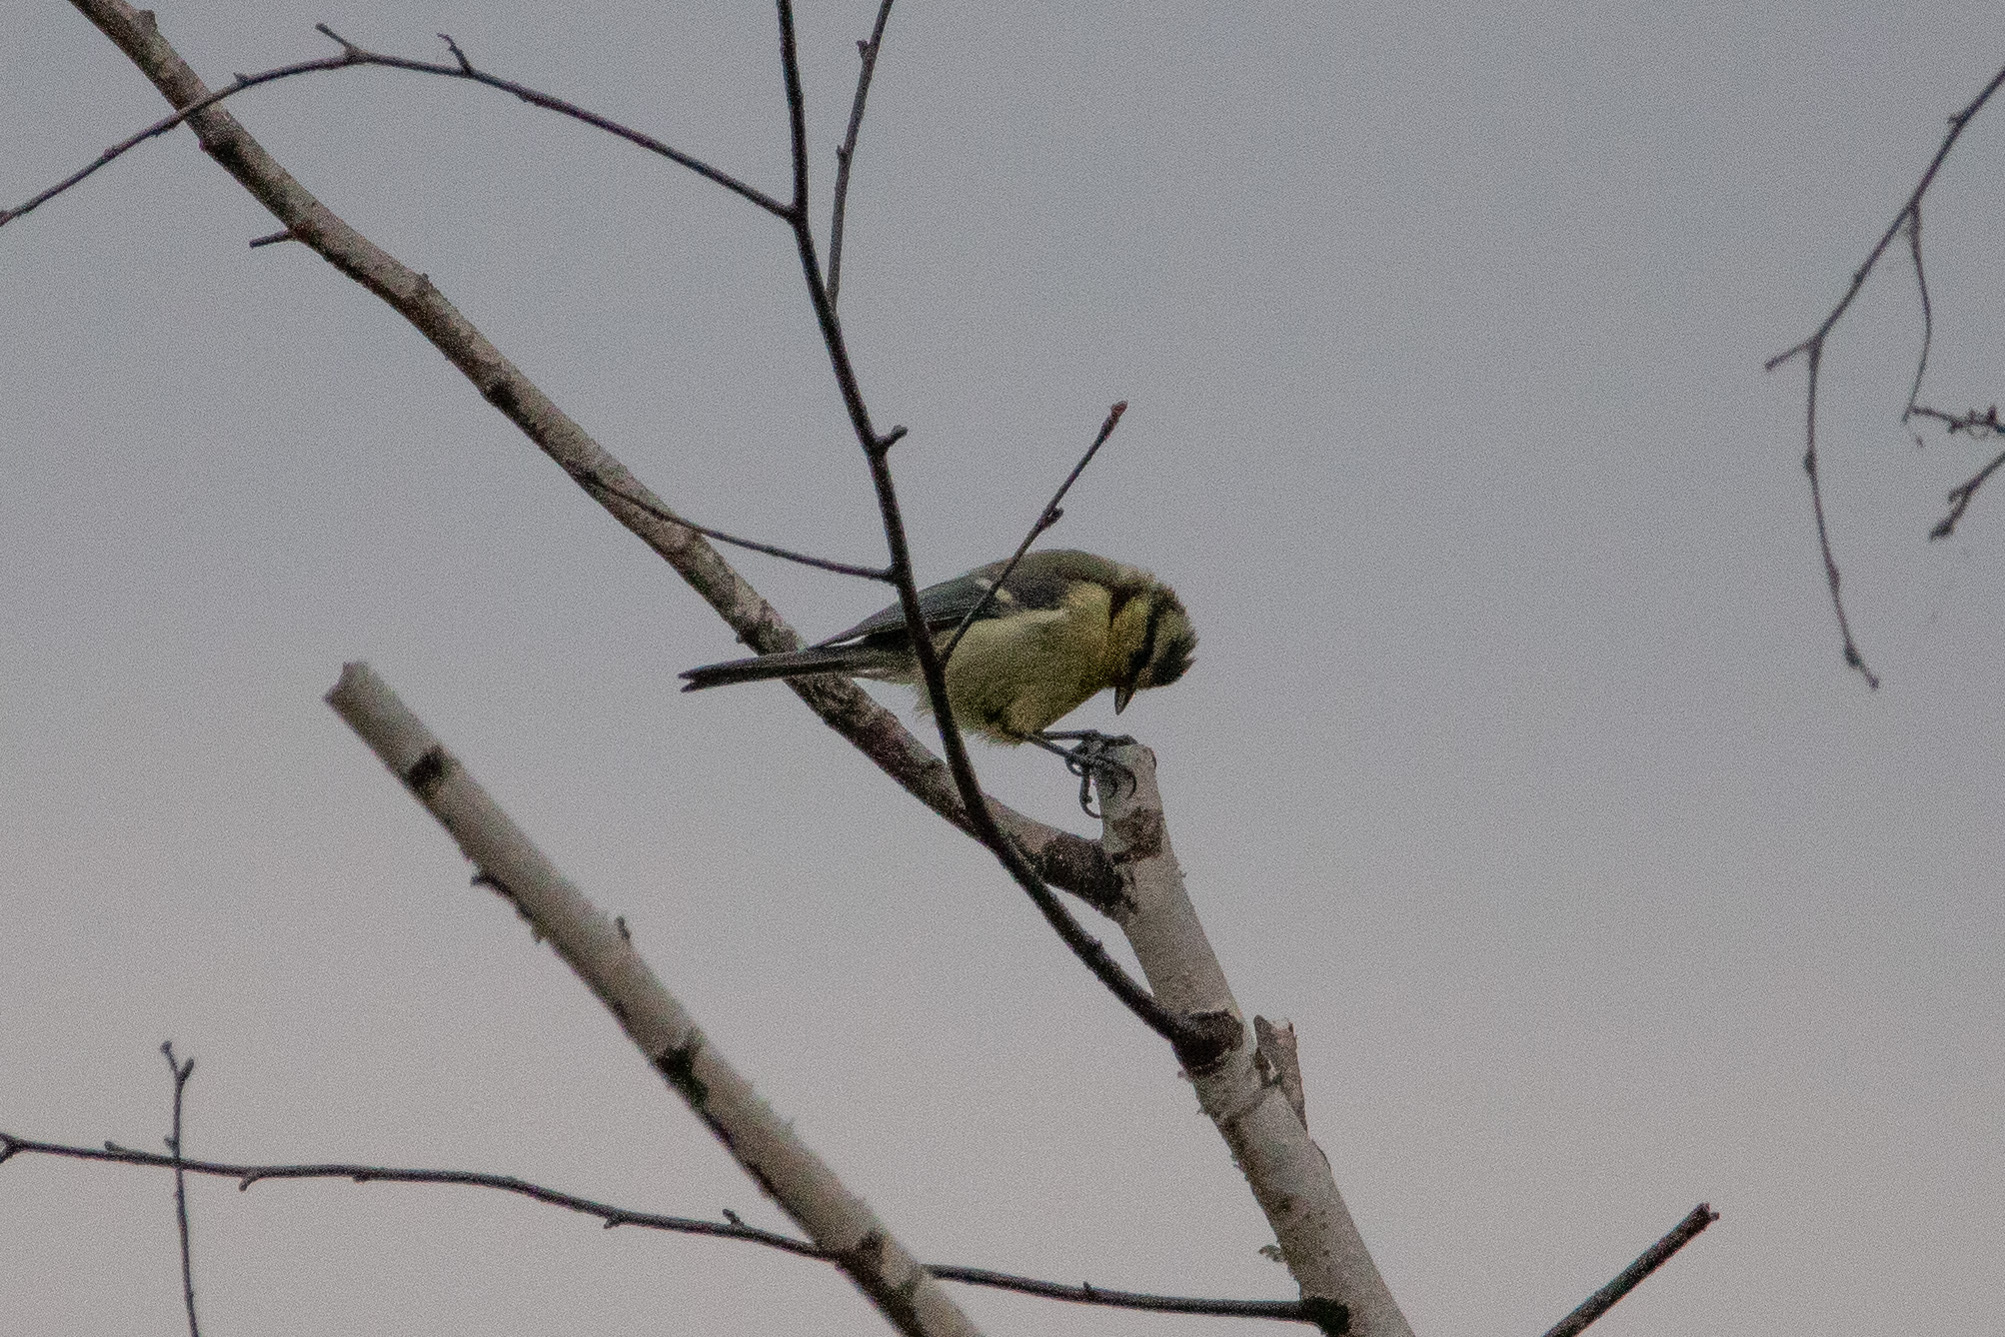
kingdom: Animalia
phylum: Chordata
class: Aves
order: Passeriformes
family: Paridae
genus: Cyanistes
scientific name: Cyanistes caeruleus
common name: Eurasian blue tit
